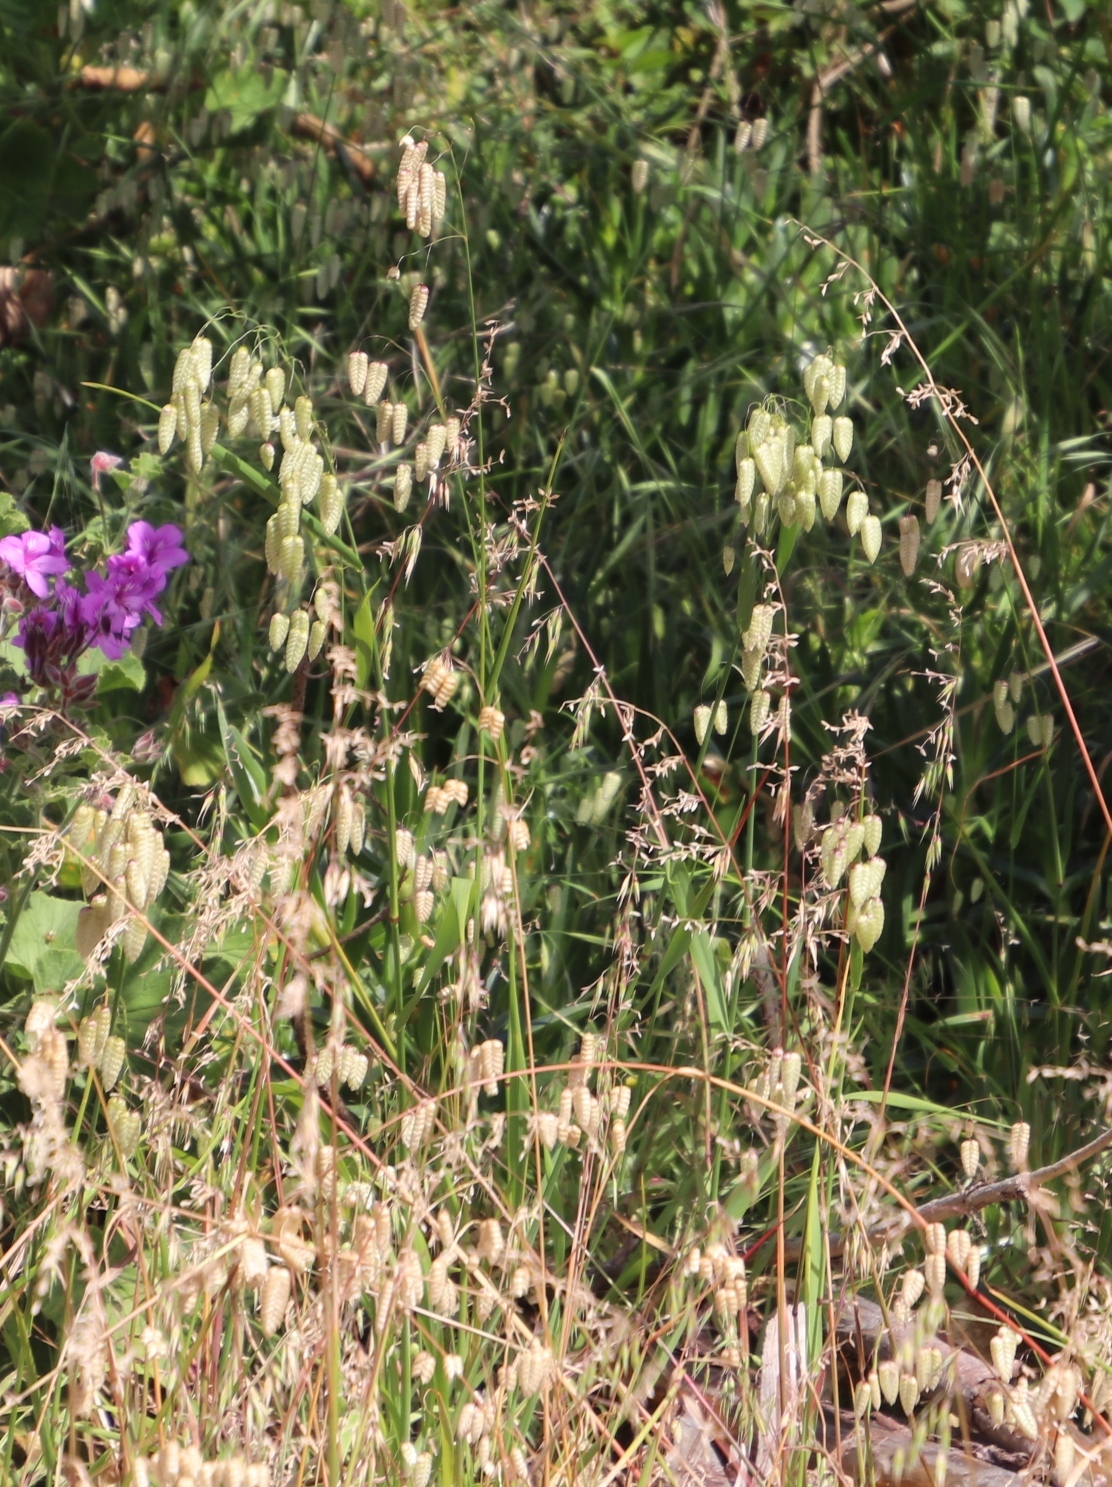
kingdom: Plantae
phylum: Tracheophyta
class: Liliopsida
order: Poales
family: Poaceae
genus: Briza
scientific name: Briza maxima
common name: Big quakinggrass
